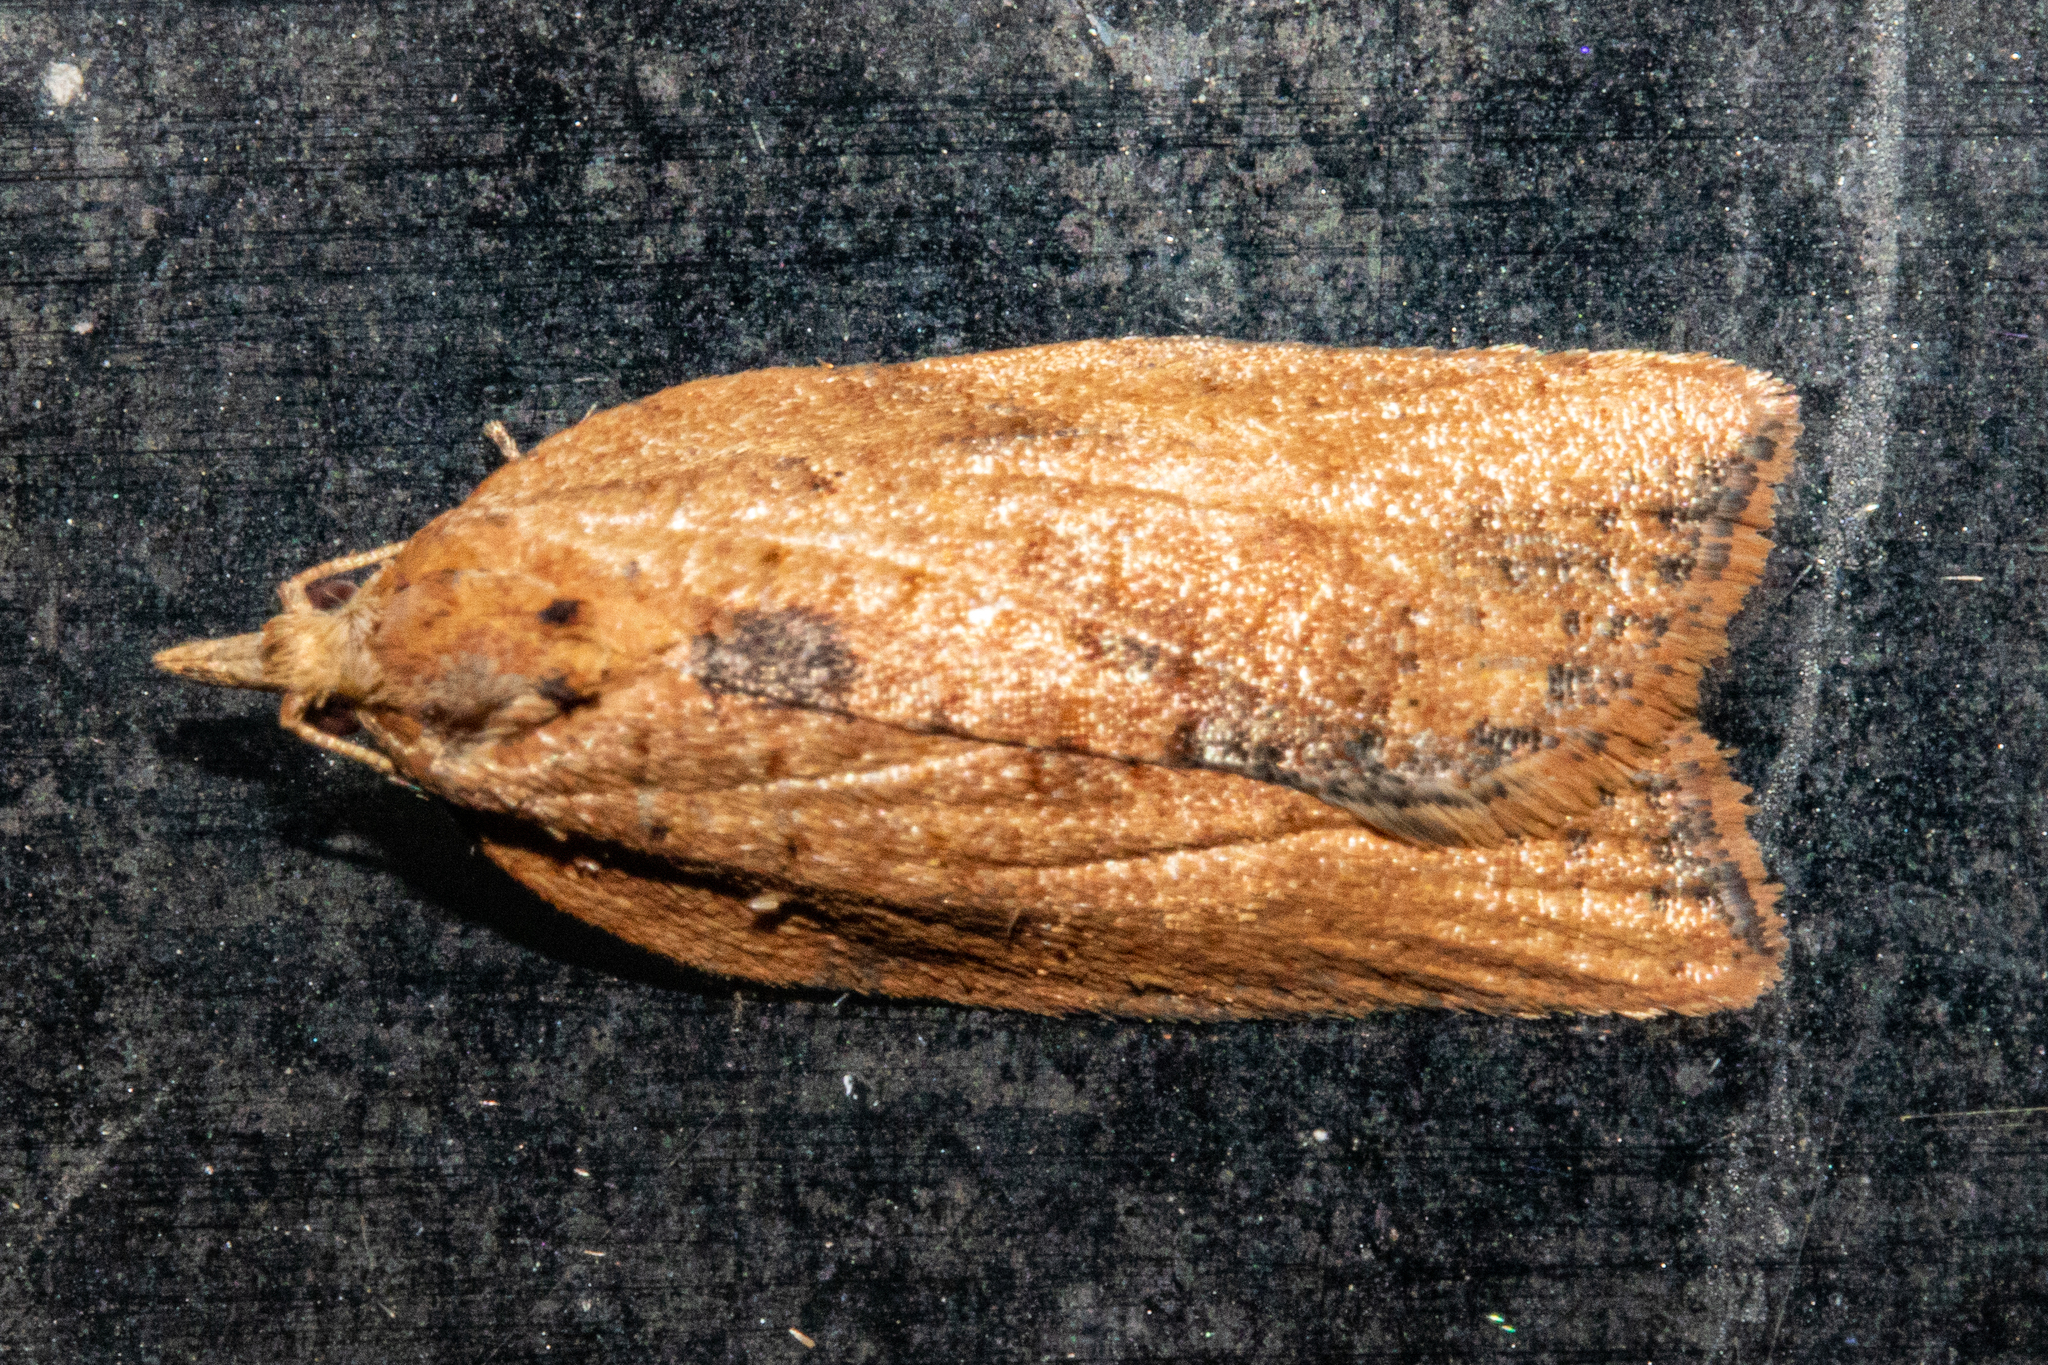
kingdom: Animalia
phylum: Arthropoda
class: Insecta
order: Lepidoptera
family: Tortricidae
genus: Epiphyas
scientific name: Epiphyas postvittana
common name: Light brown apple moth
